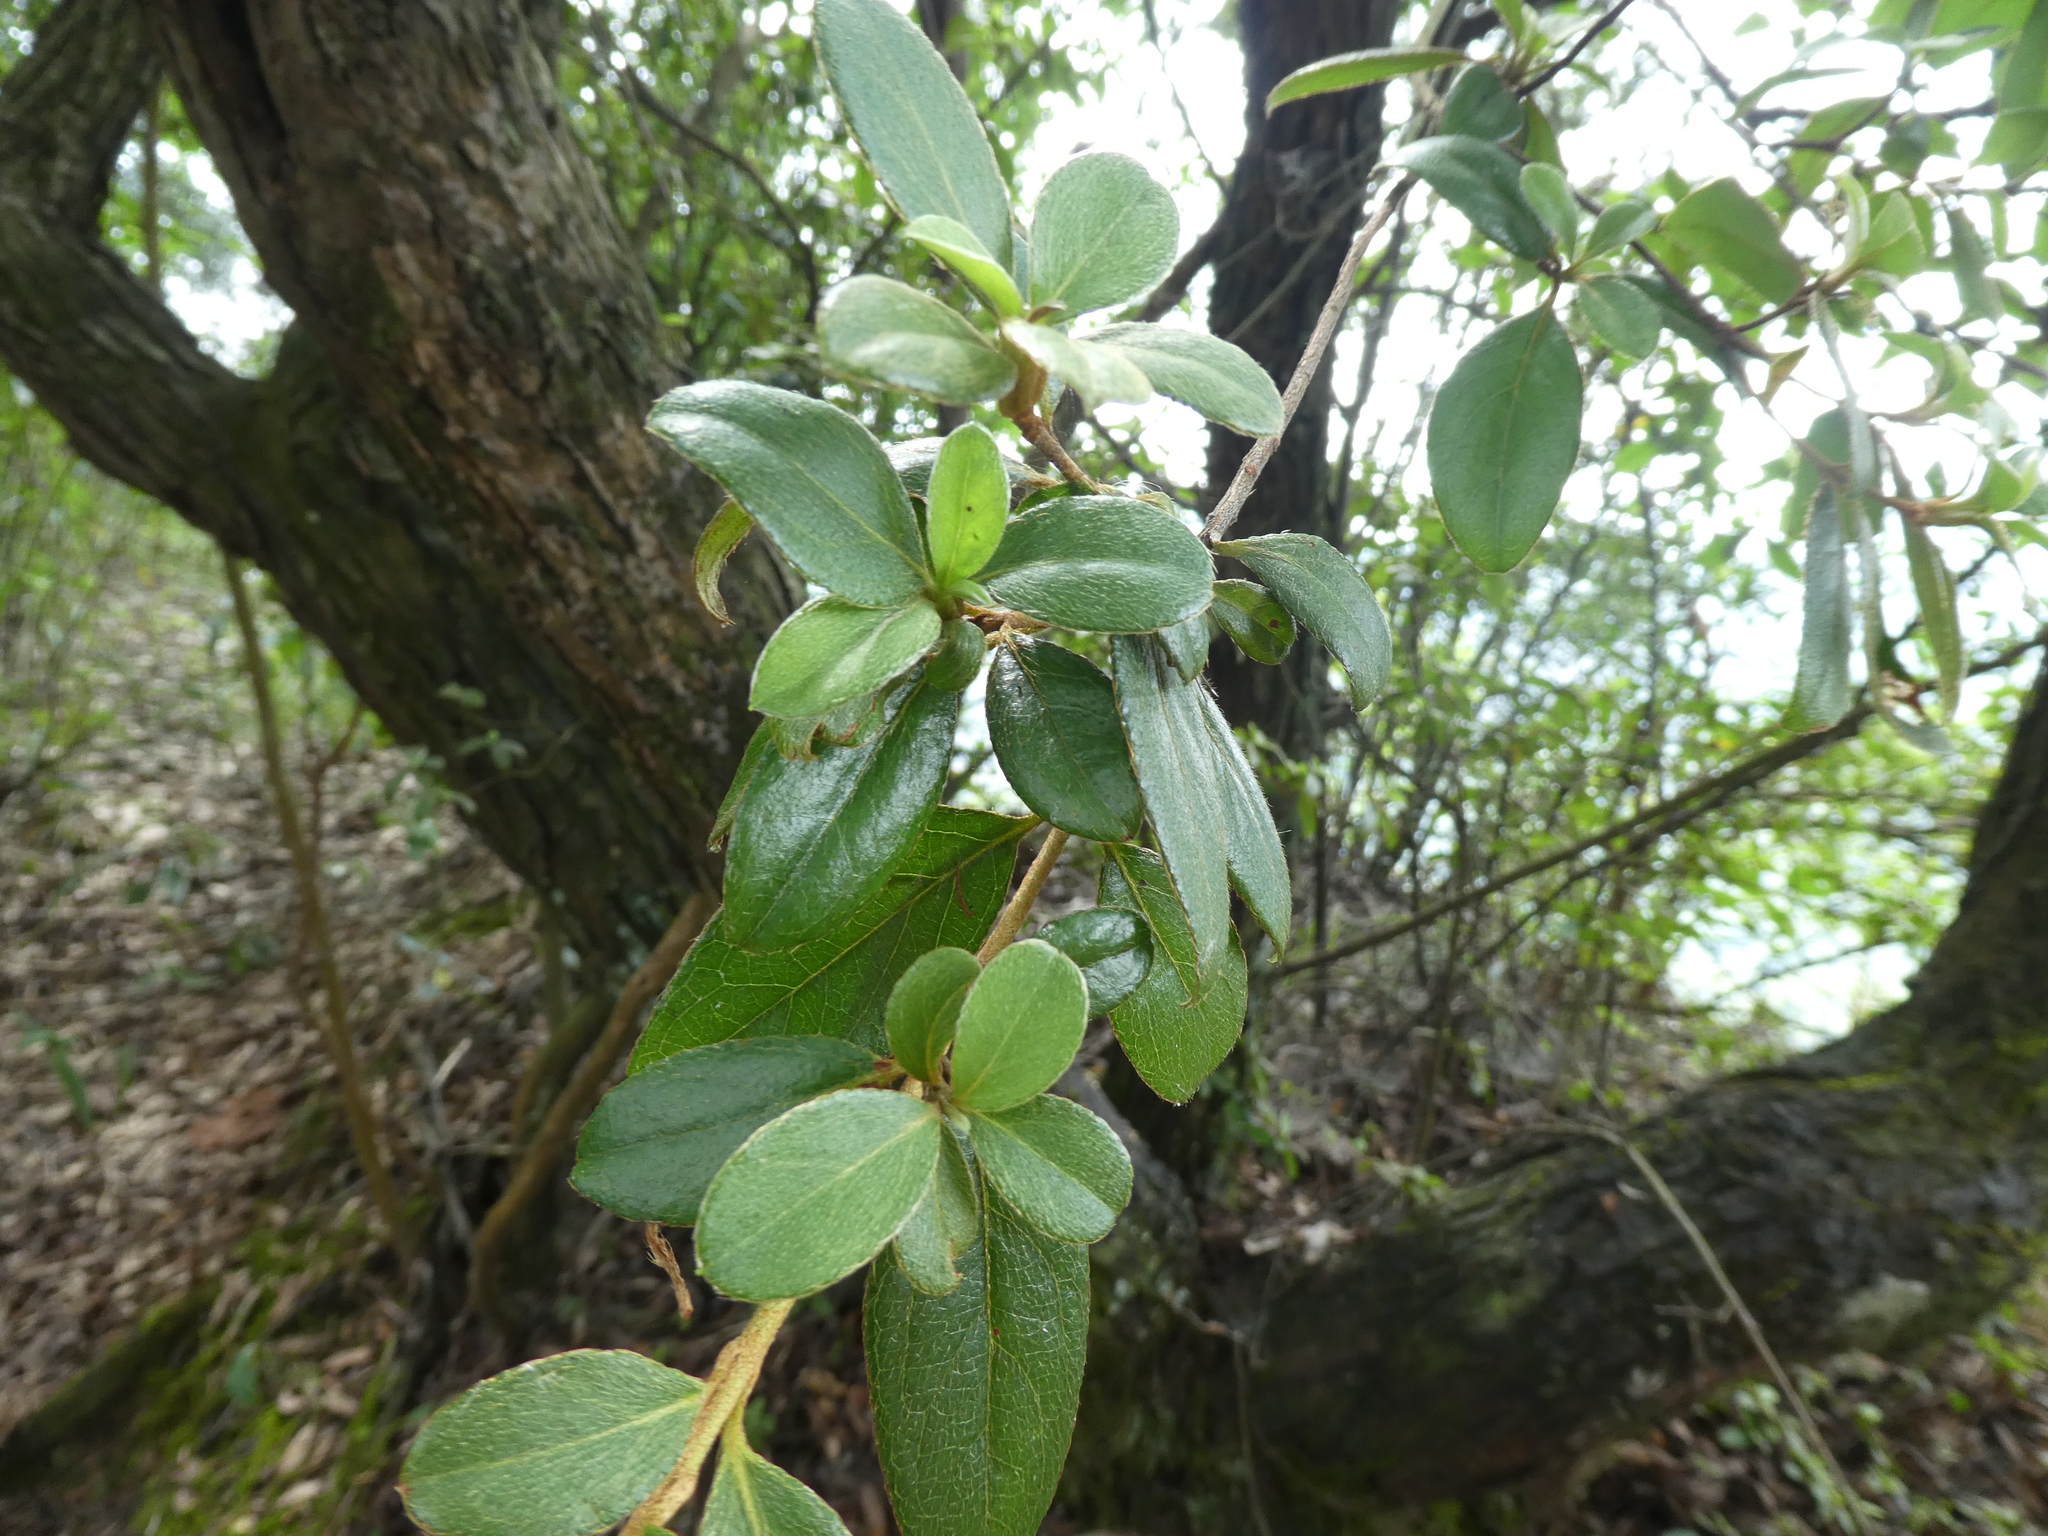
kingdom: Plantae
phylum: Tracheophyta
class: Magnoliopsida
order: Ericales
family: Ericaceae
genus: Rhododendron
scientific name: Rhododendron simsii
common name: Rhododendron
